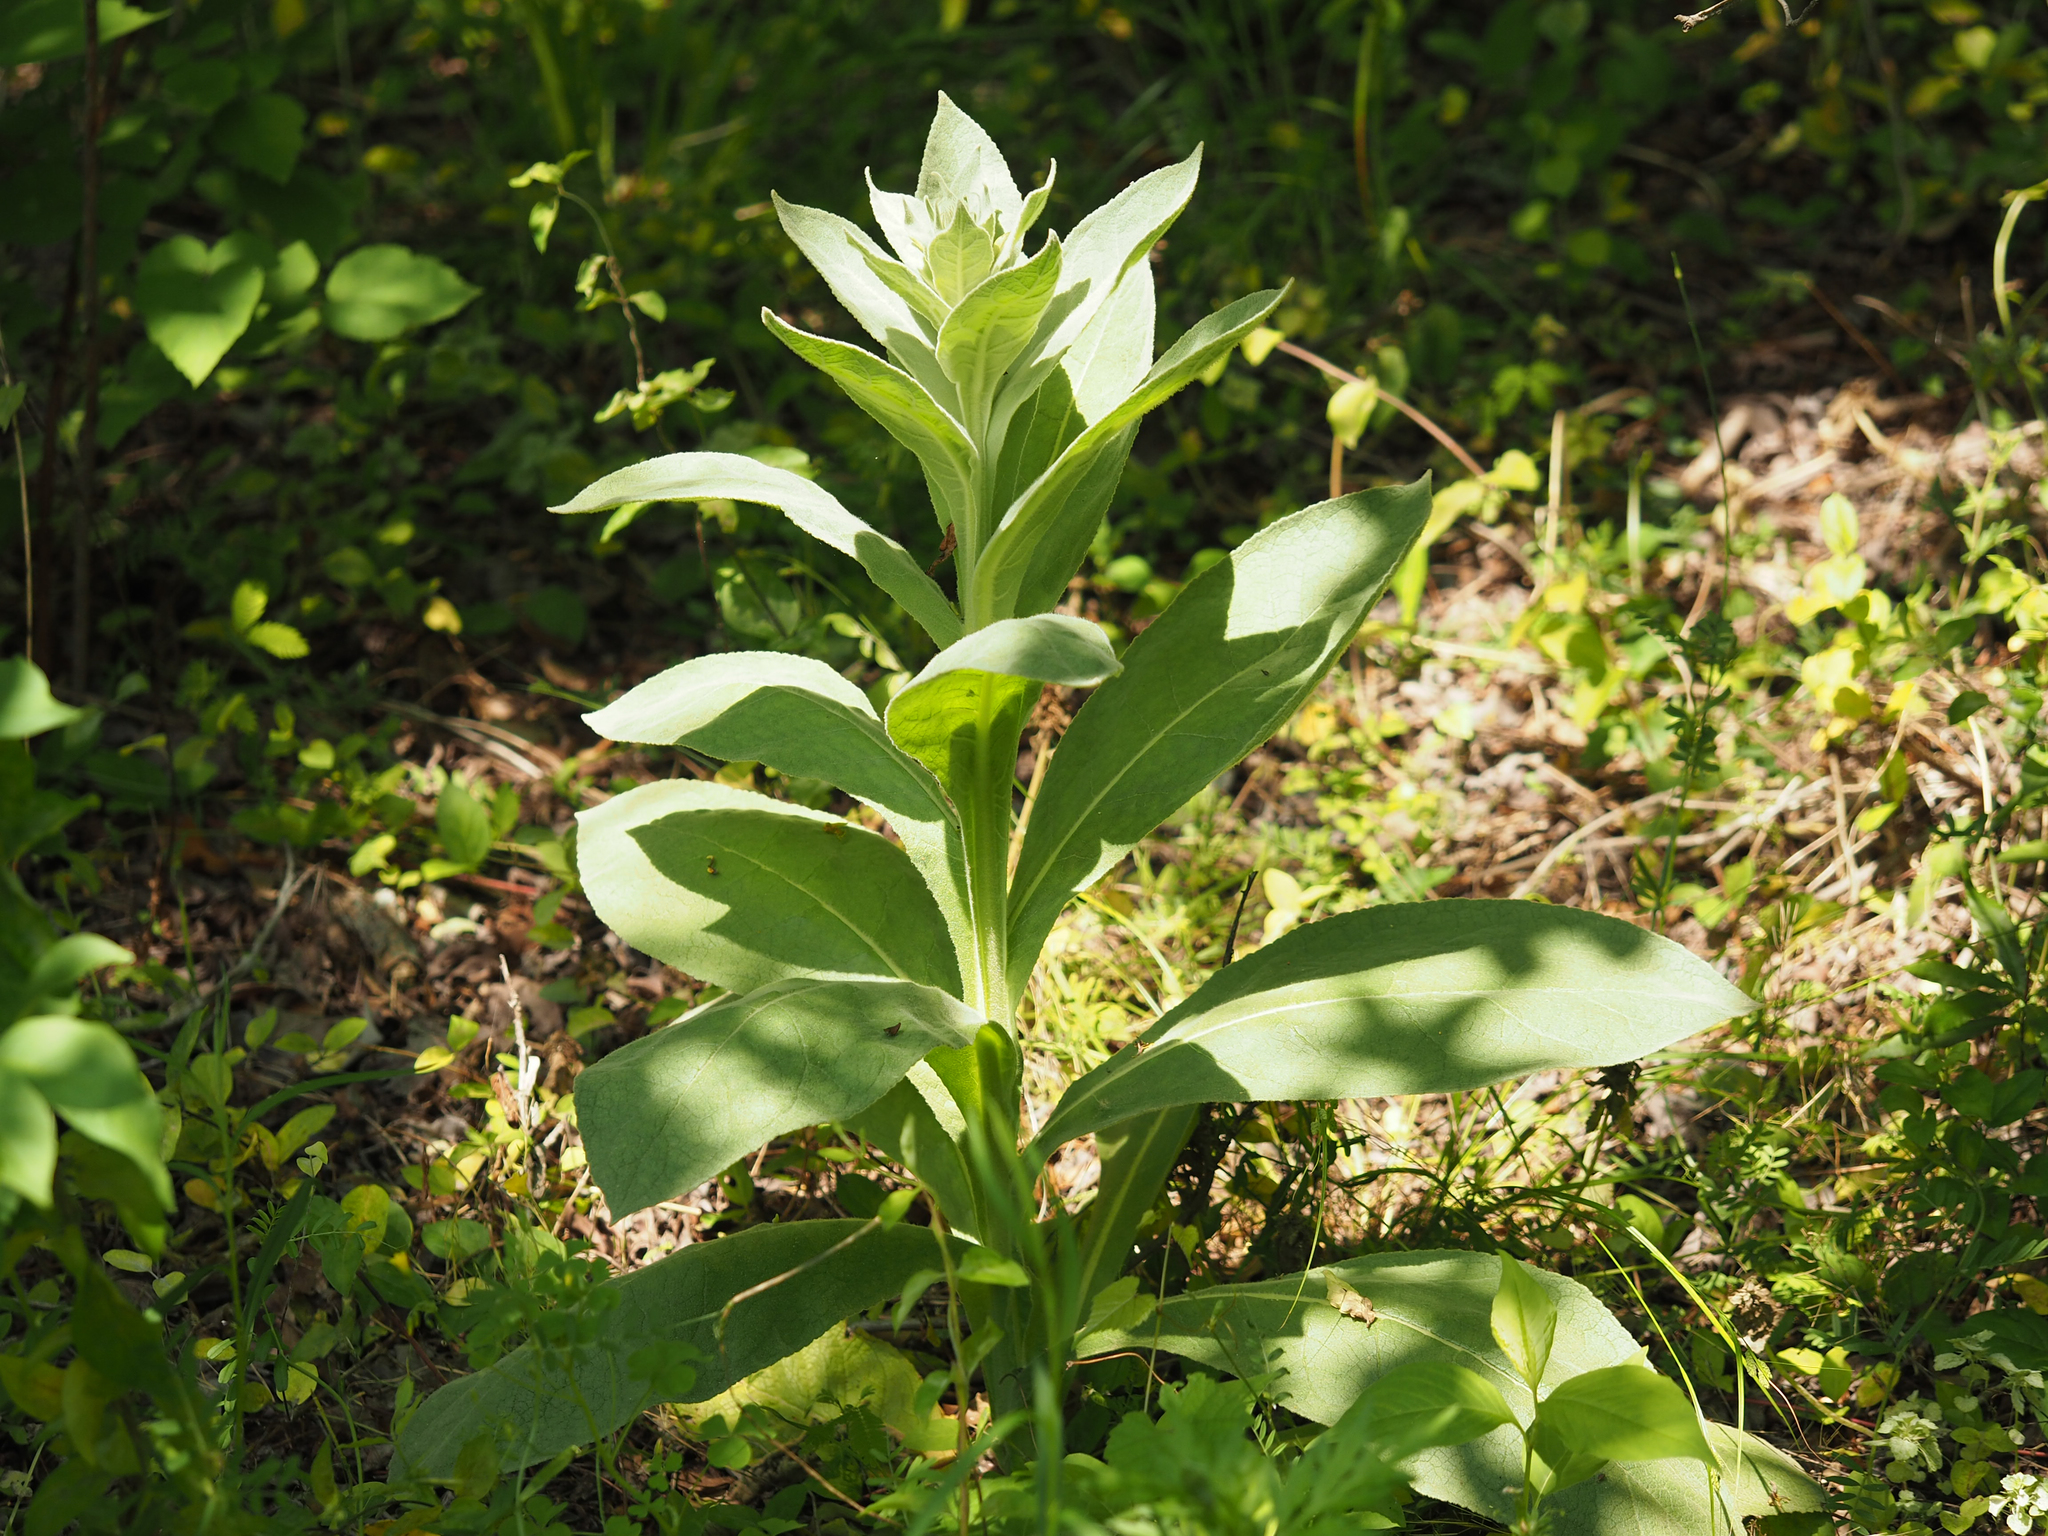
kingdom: Plantae
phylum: Tracheophyta
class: Magnoliopsida
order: Lamiales
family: Scrophulariaceae
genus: Verbascum
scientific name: Verbascum thapsus
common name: Common mullein
